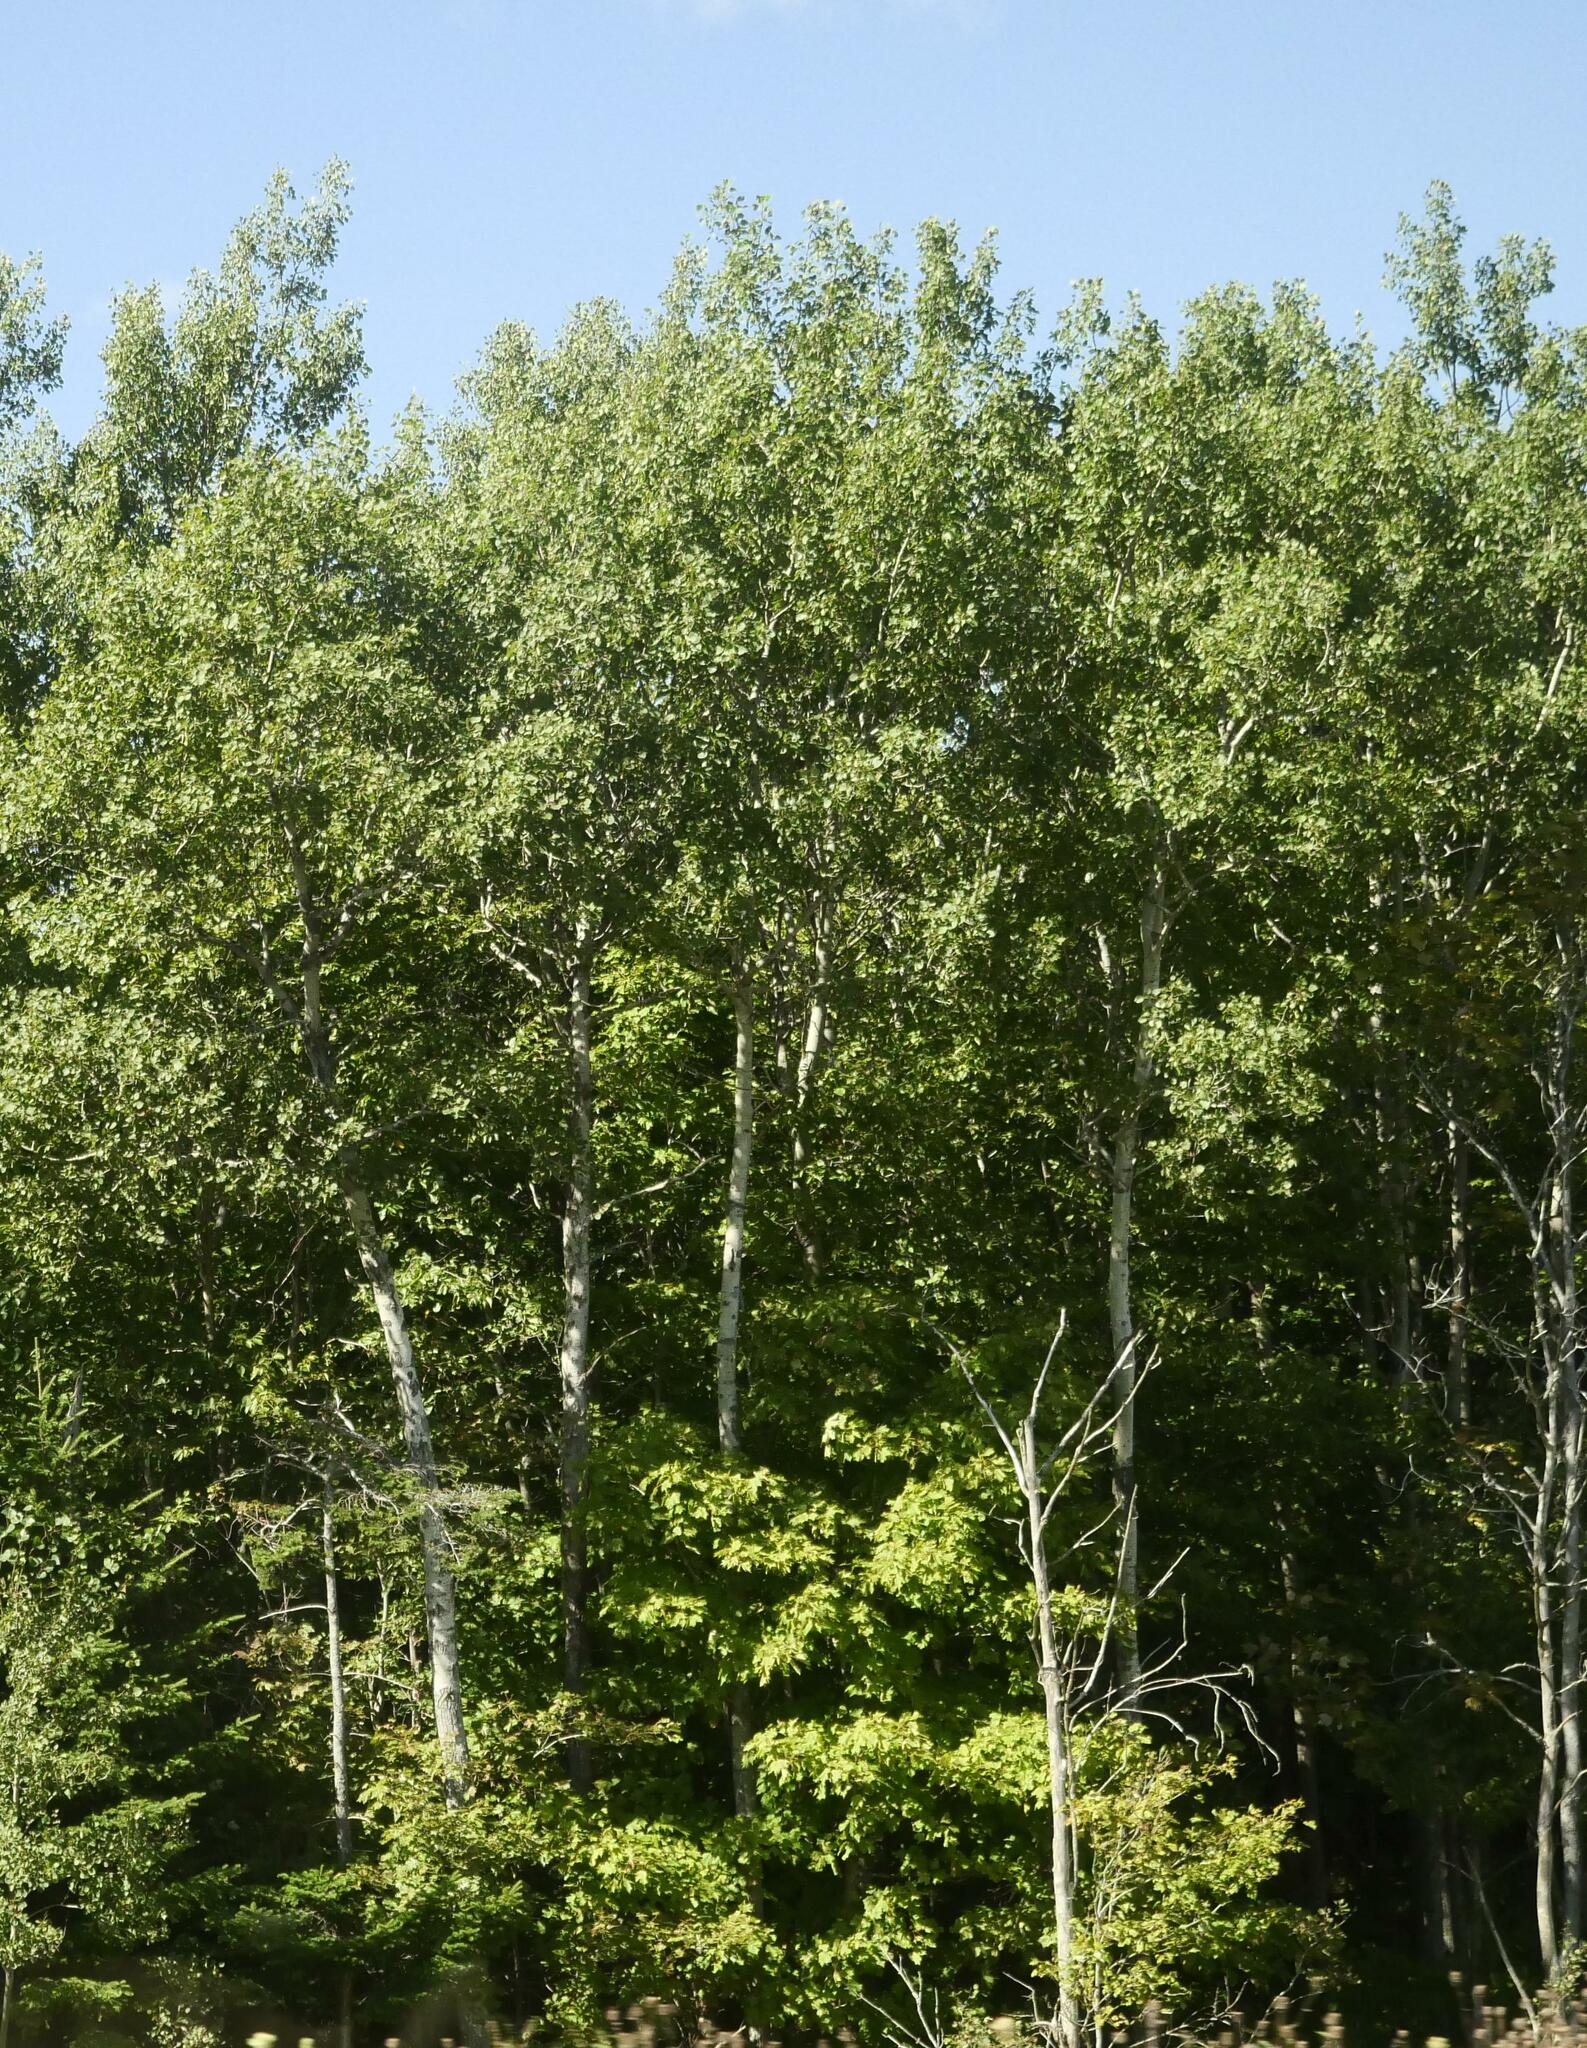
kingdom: Plantae
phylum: Tracheophyta
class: Magnoliopsida
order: Malpighiales
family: Salicaceae
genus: Populus
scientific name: Populus tremuloides
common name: Quaking aspen
